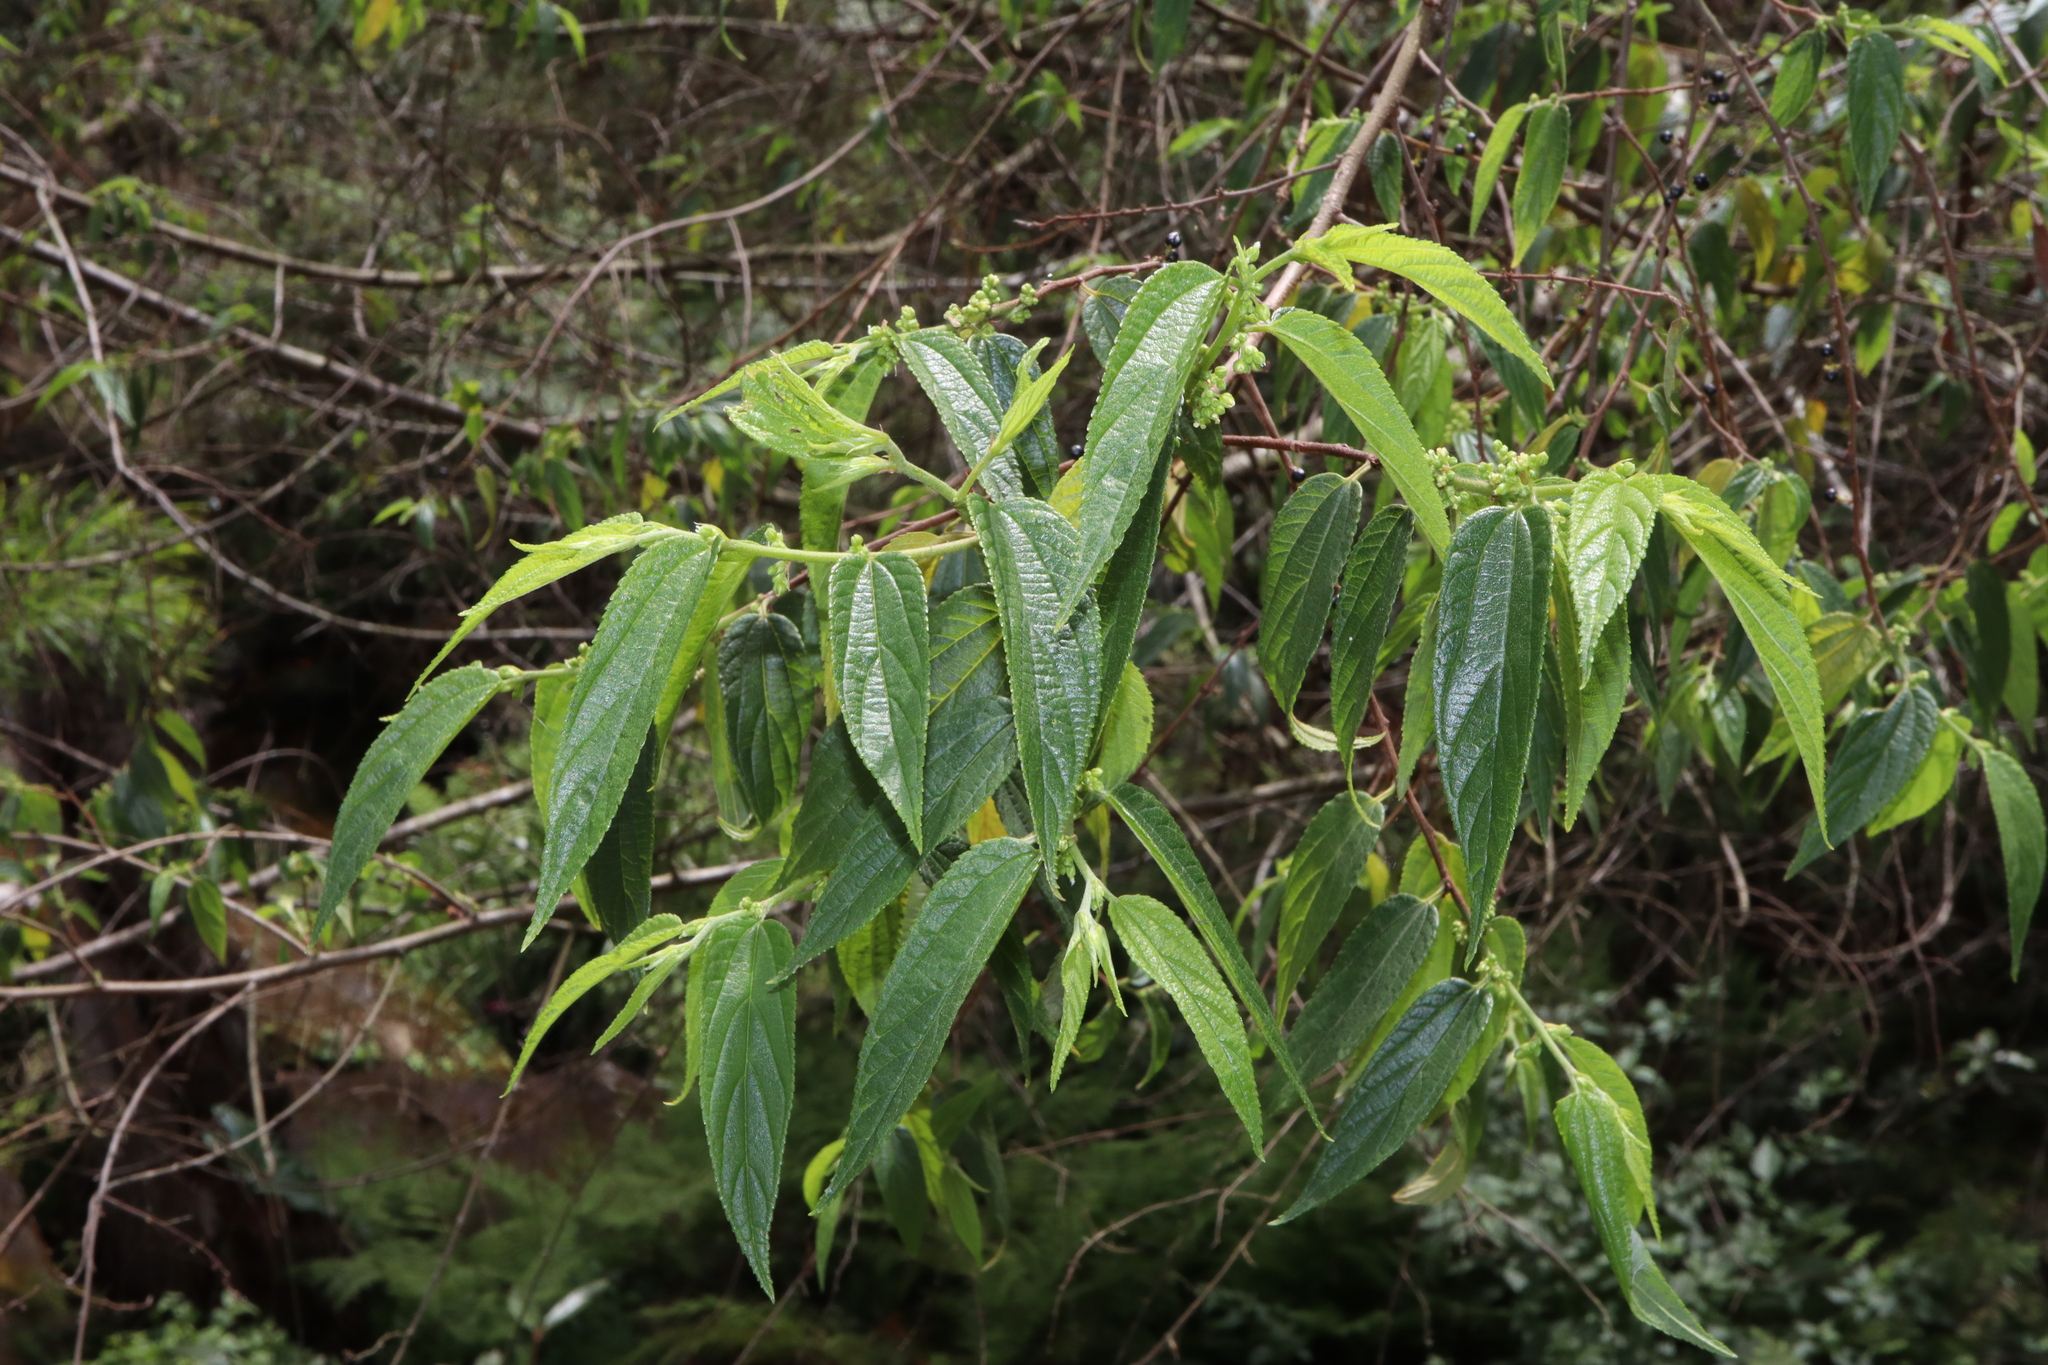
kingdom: Plantae
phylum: Tracheophyta
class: Magnoliopsida
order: Rosales
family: Cannabaceae
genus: Trema
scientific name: Trema tomentosum
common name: Peach-leaf-poisonbush
